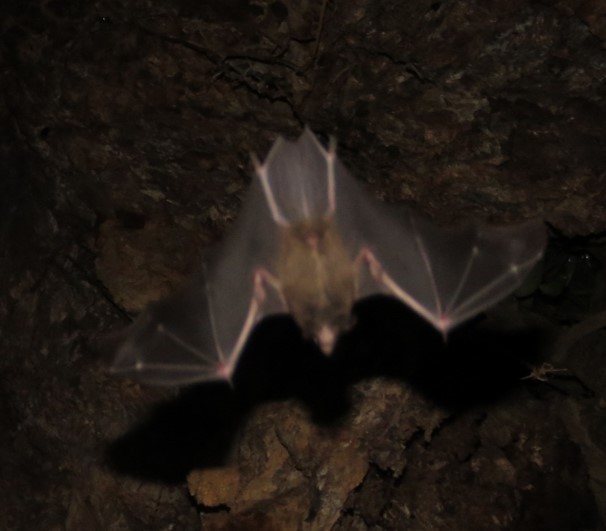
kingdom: Animalia
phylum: Chordata
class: Mammalia
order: Chiroptera
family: Phyllostomidae
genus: Chrotopterus
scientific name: Chrotopterus auritus
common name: Woolly false vampire bat
